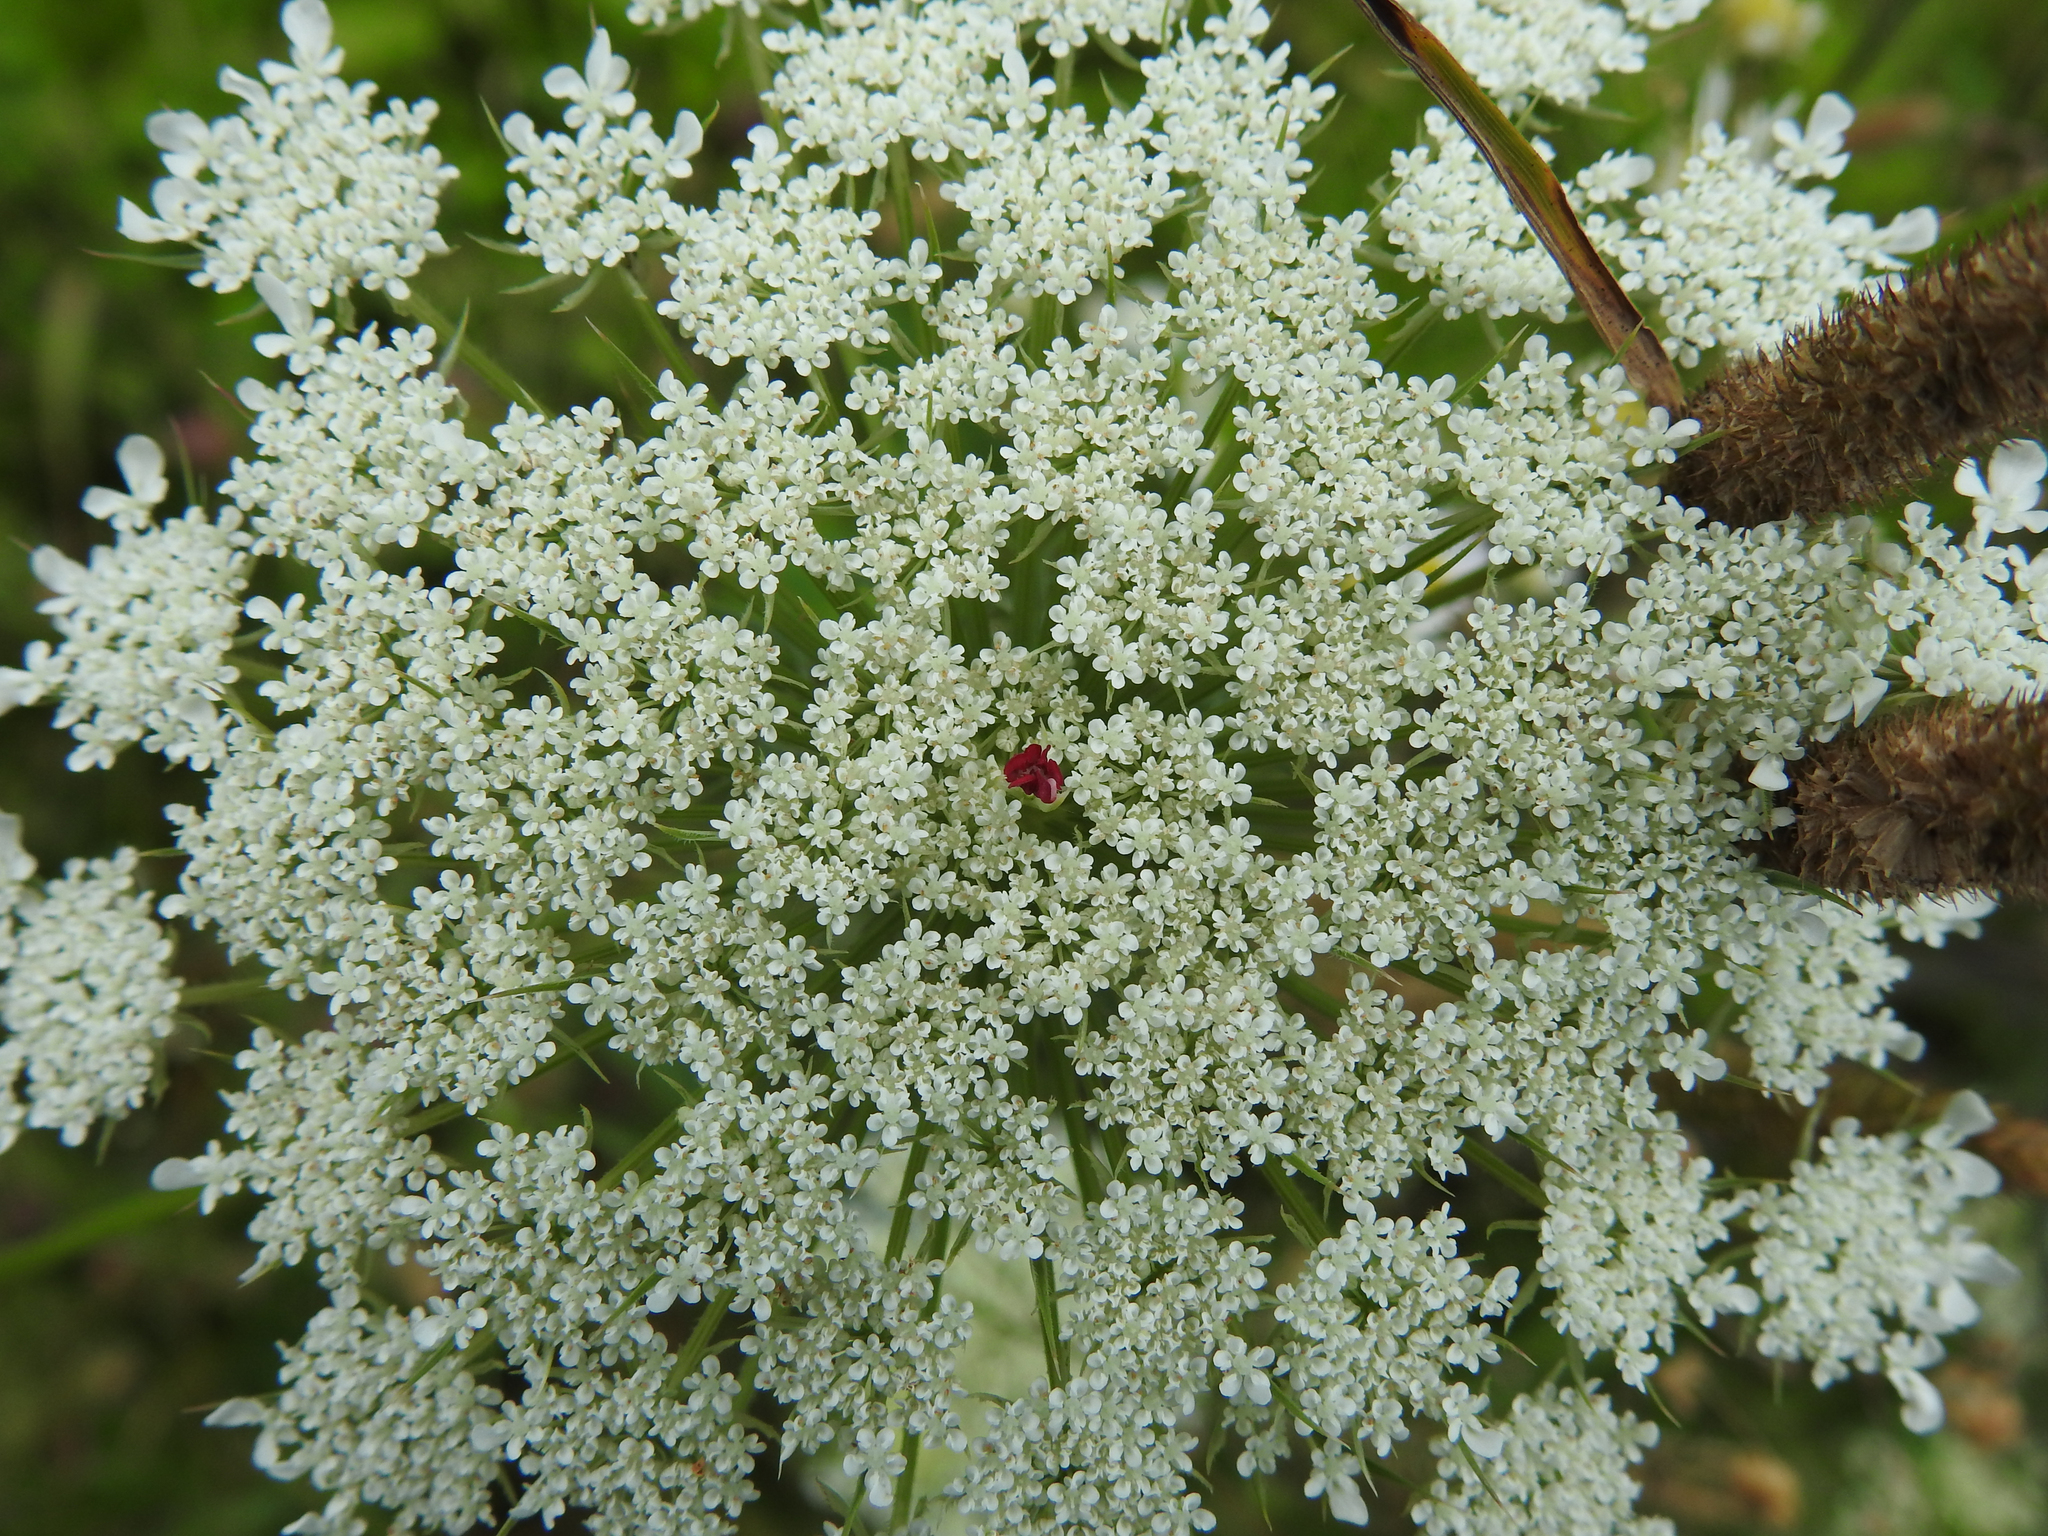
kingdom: Plantae
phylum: Tracheophyta
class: Magnoliopsida
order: Apiales
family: Apiaceae
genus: Daucus
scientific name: Daucus carota
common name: Wild carrot
